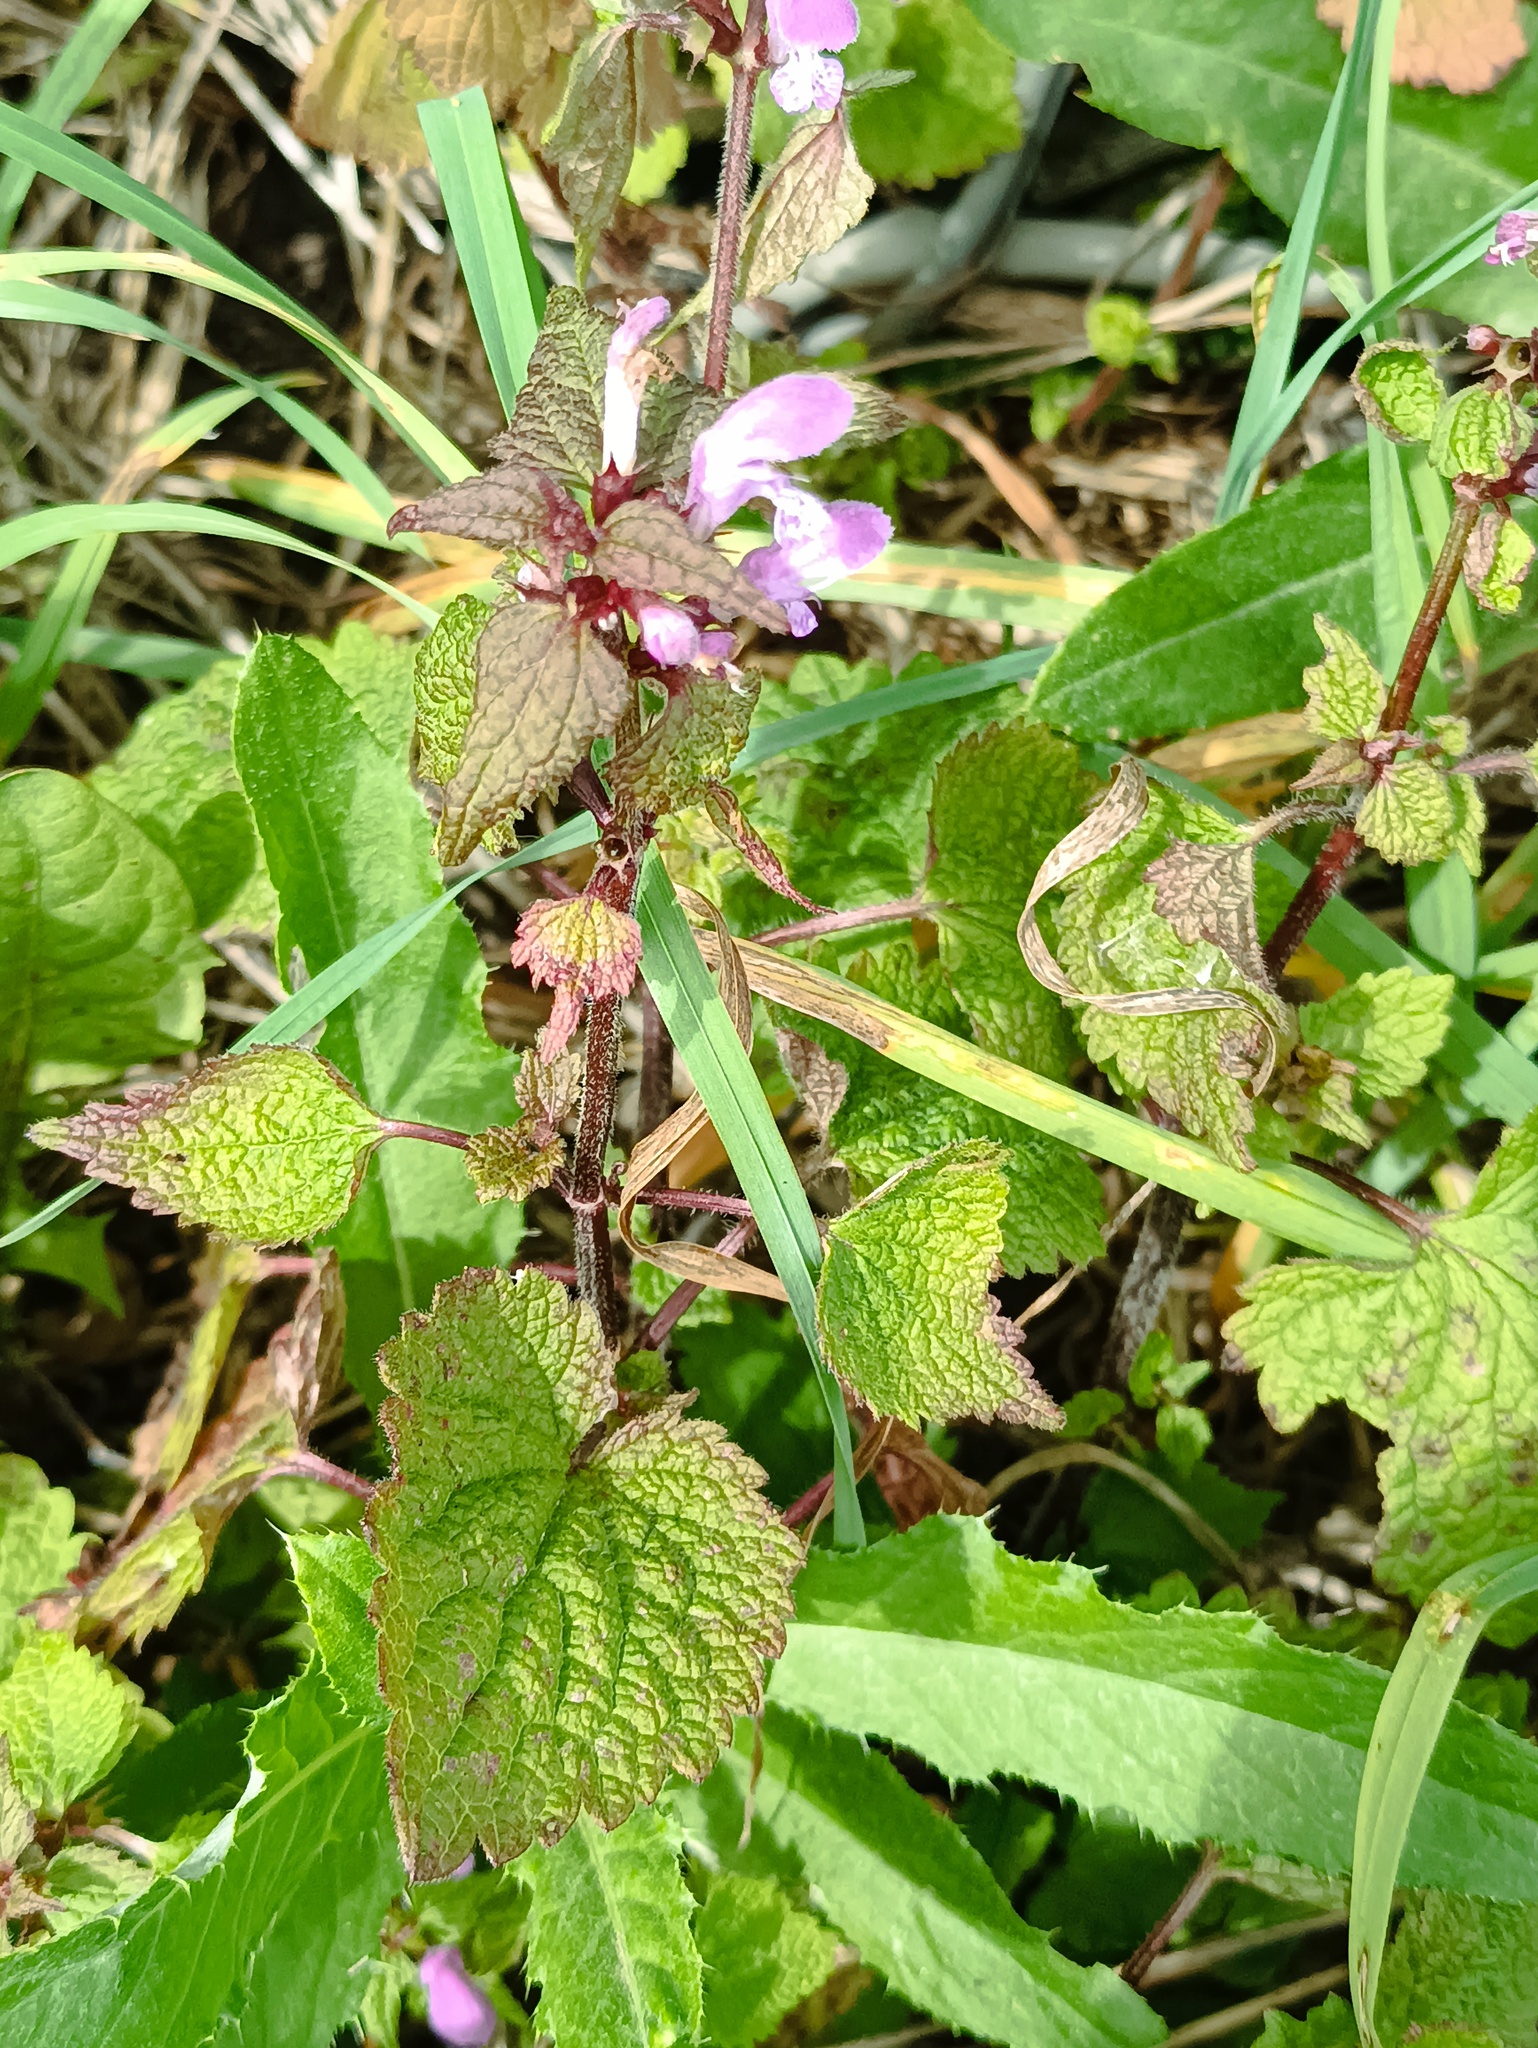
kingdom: Plantae
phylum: Tracheophyta
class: Magnoliopsida
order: Lamiales
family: Lamiaceae
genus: Lamium
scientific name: Lamium maculatum
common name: Spotted dead-nettle
